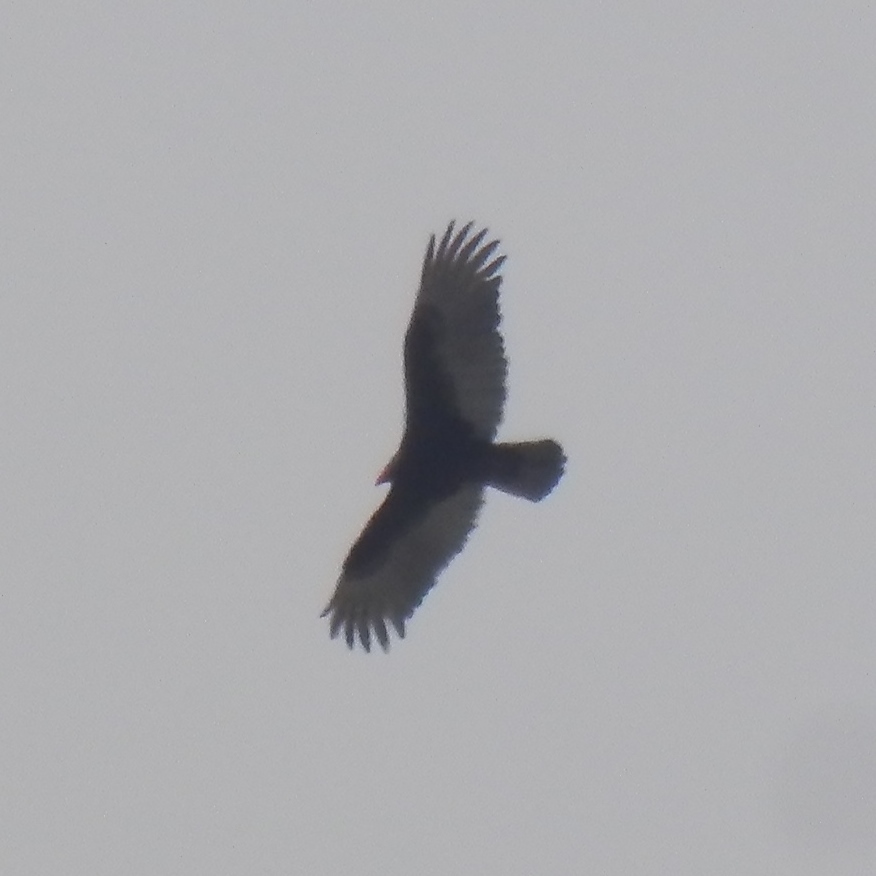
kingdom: Animalia
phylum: Chordata
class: Aves
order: Accipitriformes
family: Cathartidae
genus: Cathartes
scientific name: Cathartes aura
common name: Turkey vulture
